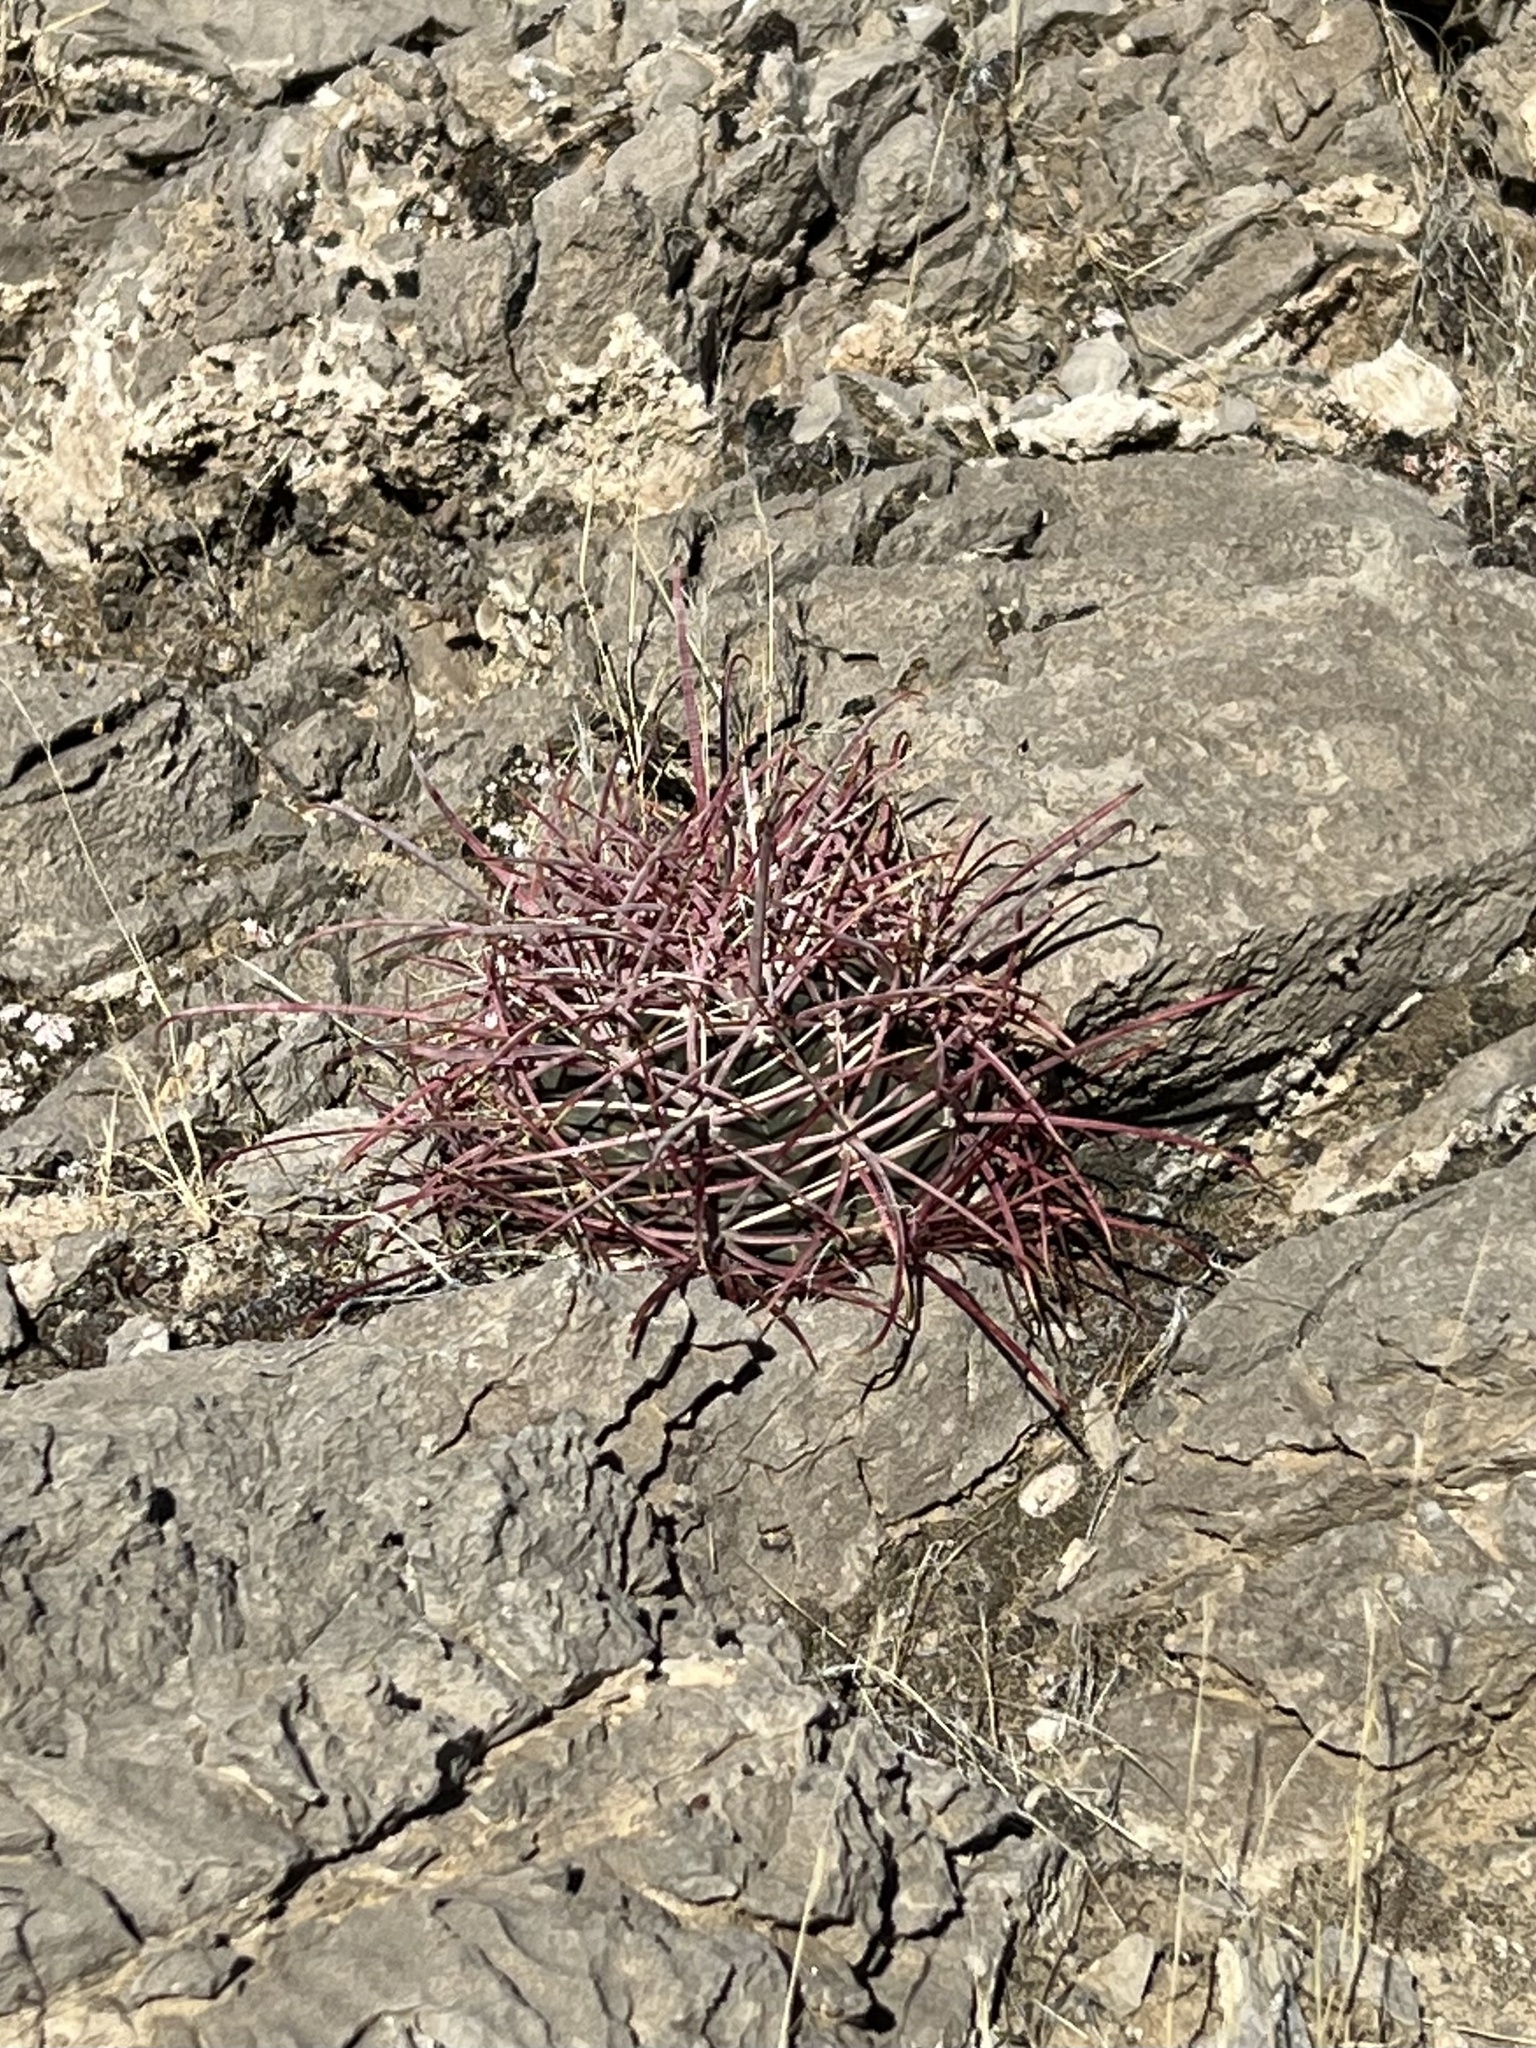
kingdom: Plantae
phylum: Tracheophyta
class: Magnoliopsida
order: Caryophyllales
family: Cactaceae
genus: Ferocactus
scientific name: Ferocactus cylindraceus
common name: California barrel cactus
